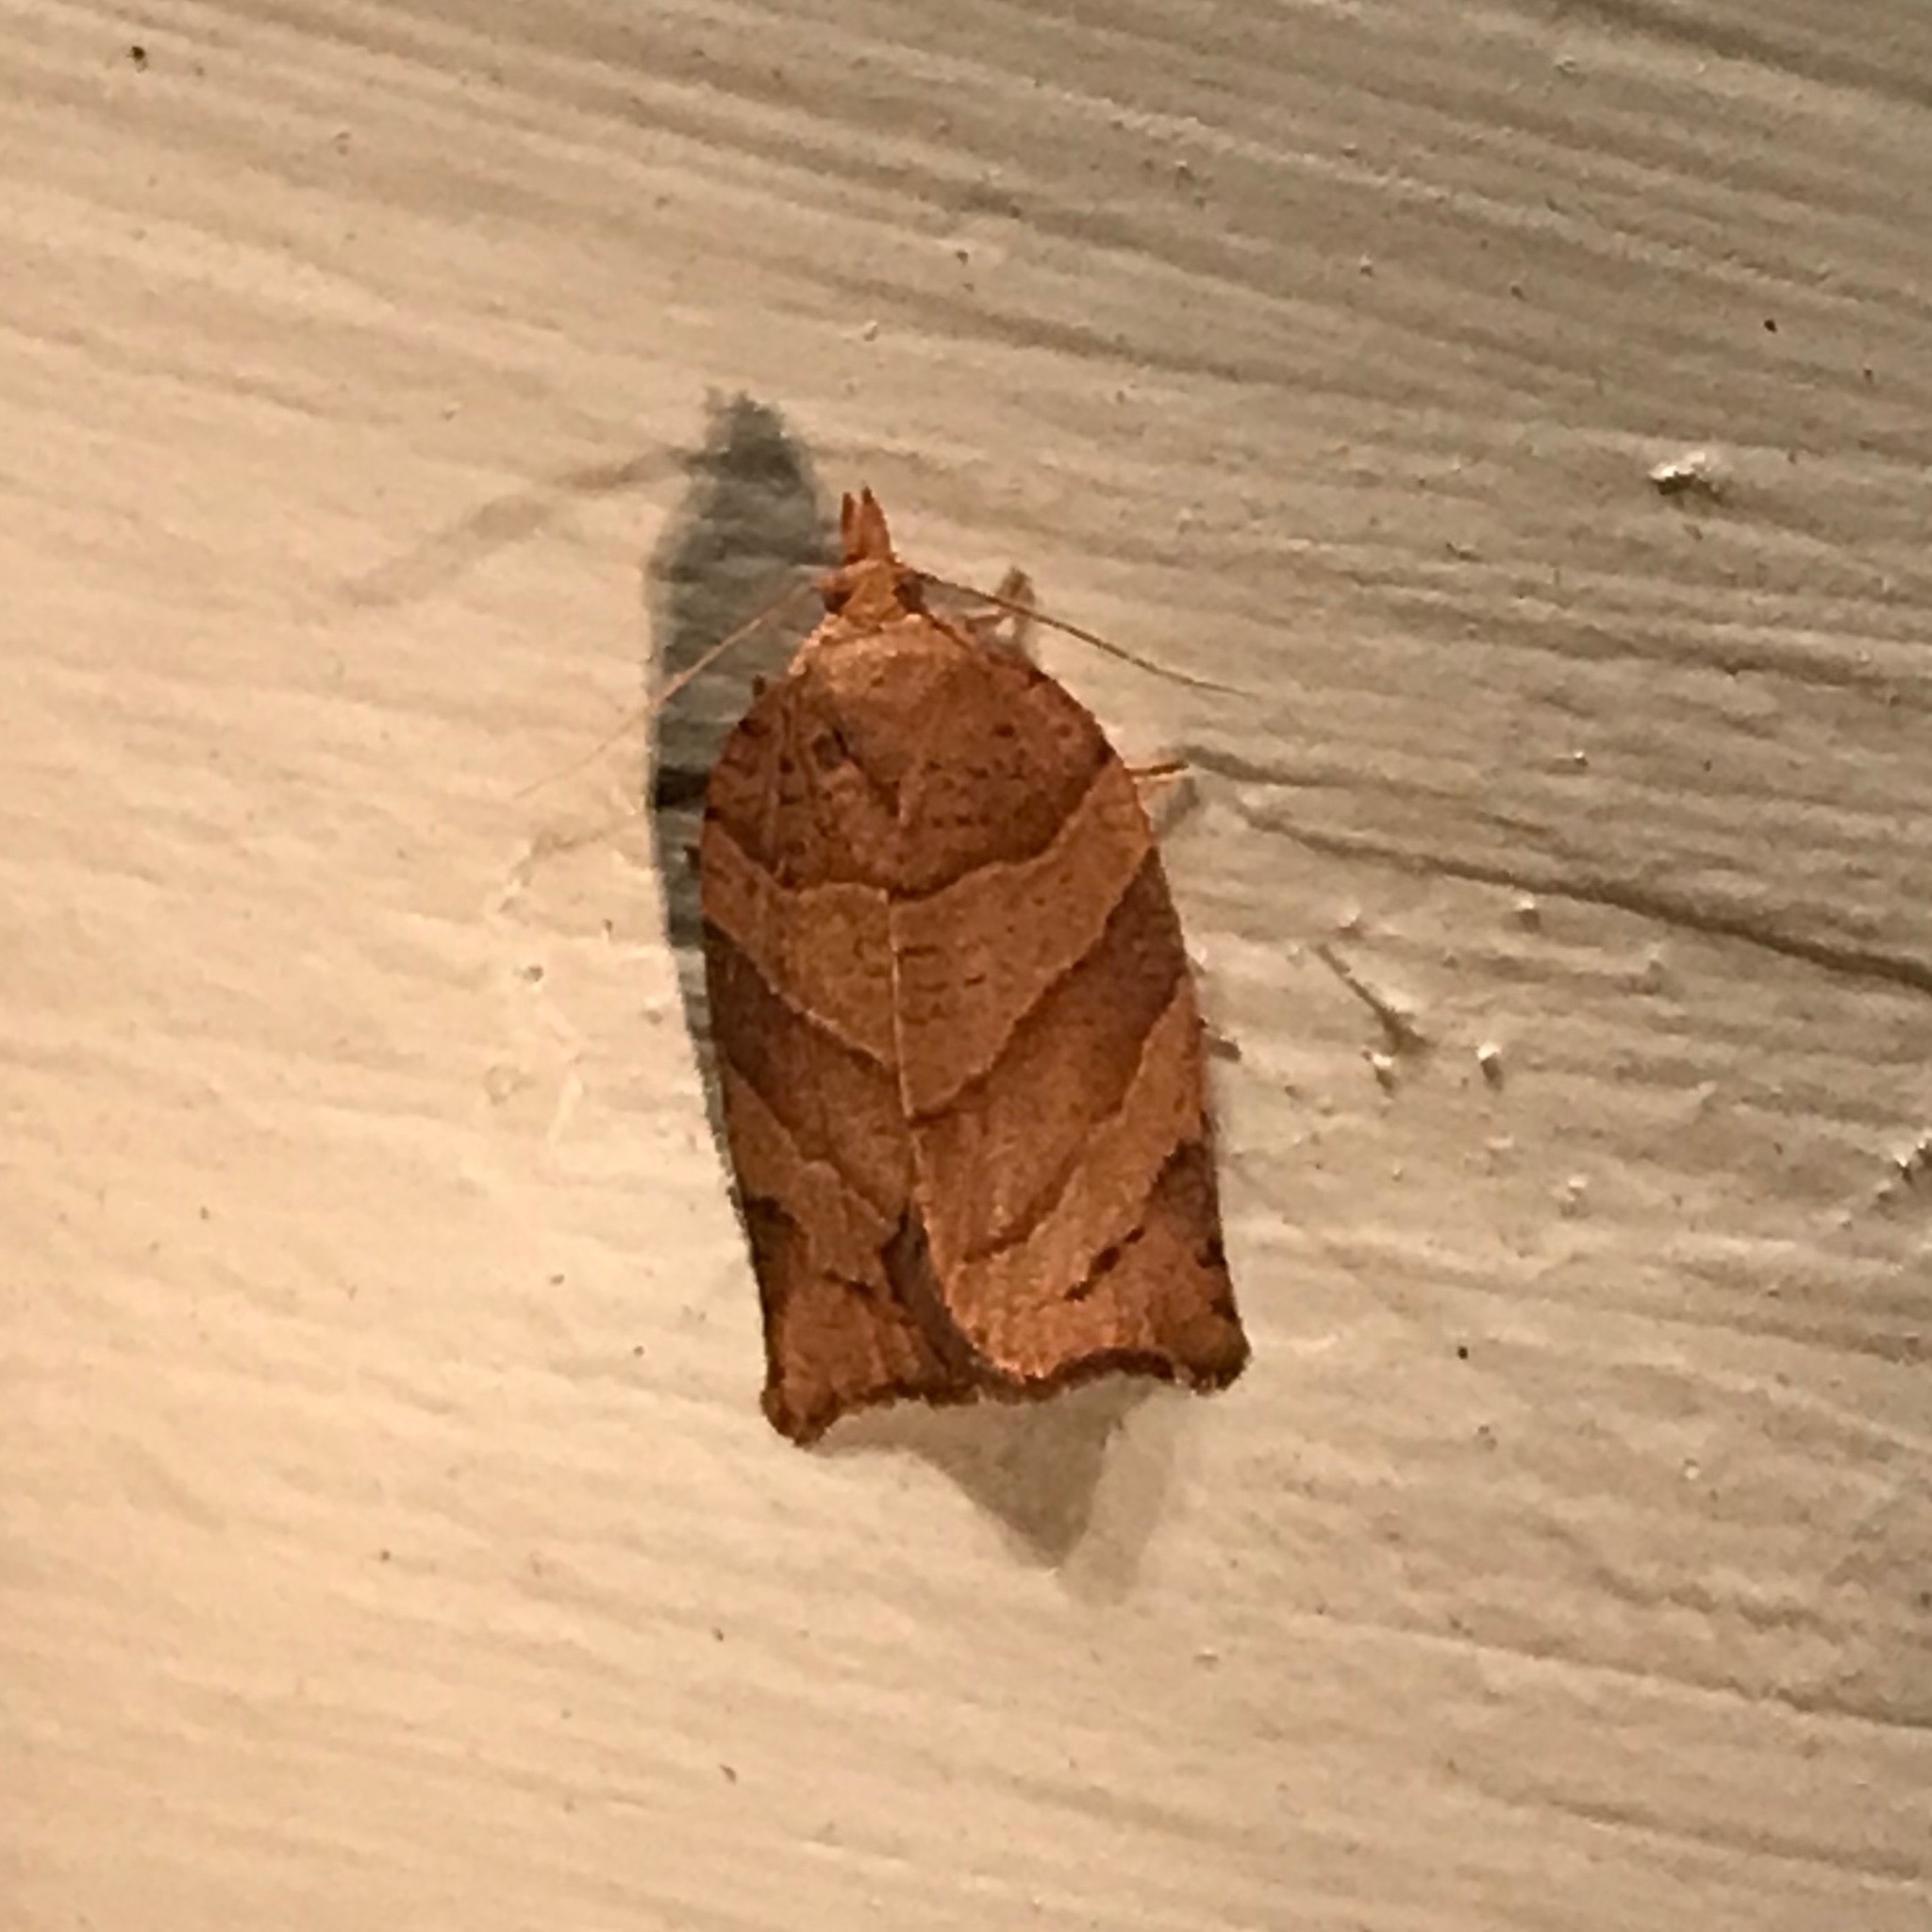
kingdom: Animalia
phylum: Arthropoda
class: Insecta
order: Lepidoptera
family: Tortricidae
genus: Pandemis
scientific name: Pandemis lamprosana
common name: Woodgrain leafroller moth
